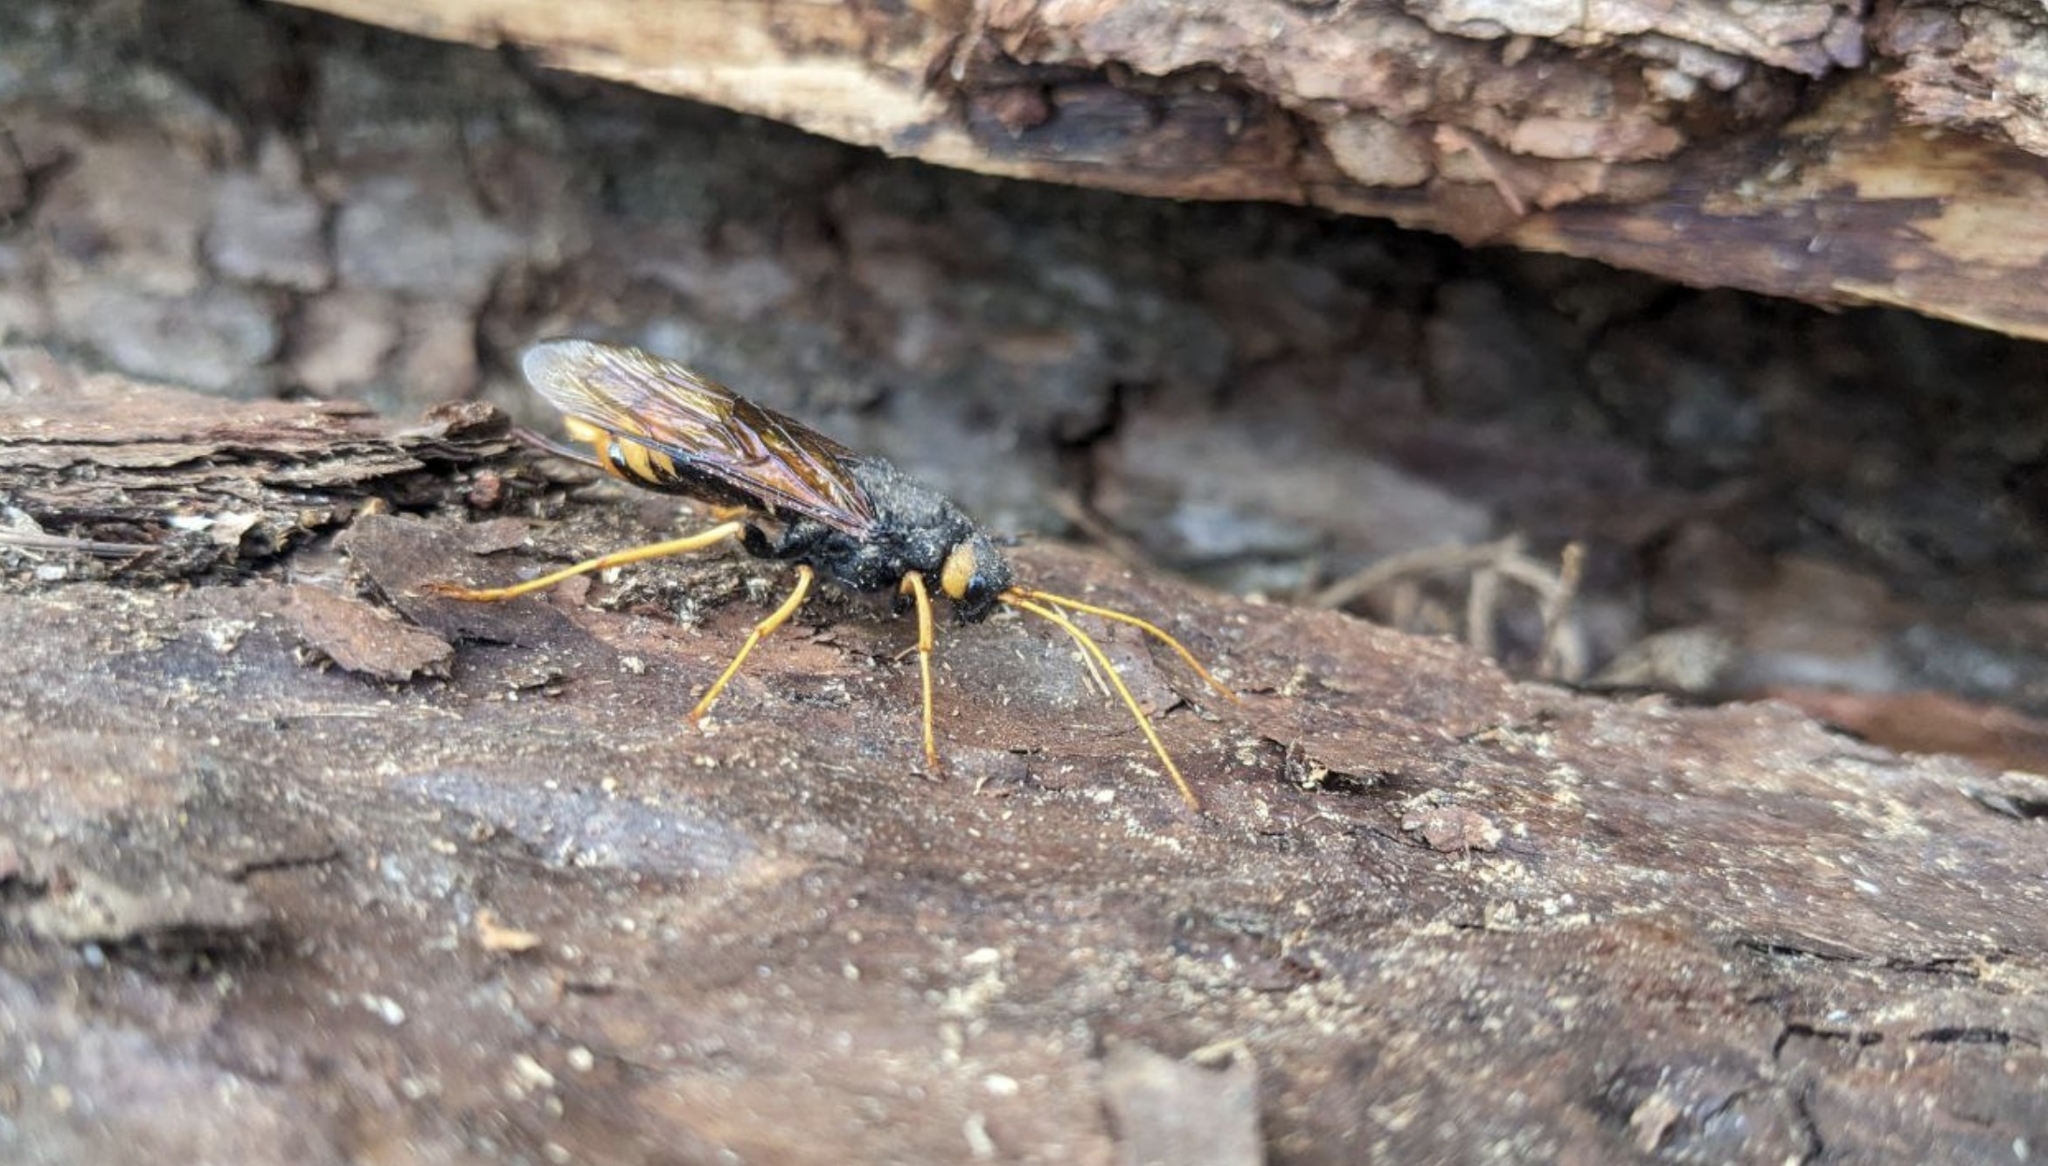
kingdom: Animalia
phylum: Arthropoda
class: Insecta
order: Hymenoptera
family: Siricidae
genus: Urocerus
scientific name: Urocerus gigas
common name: Giant woodwasp
